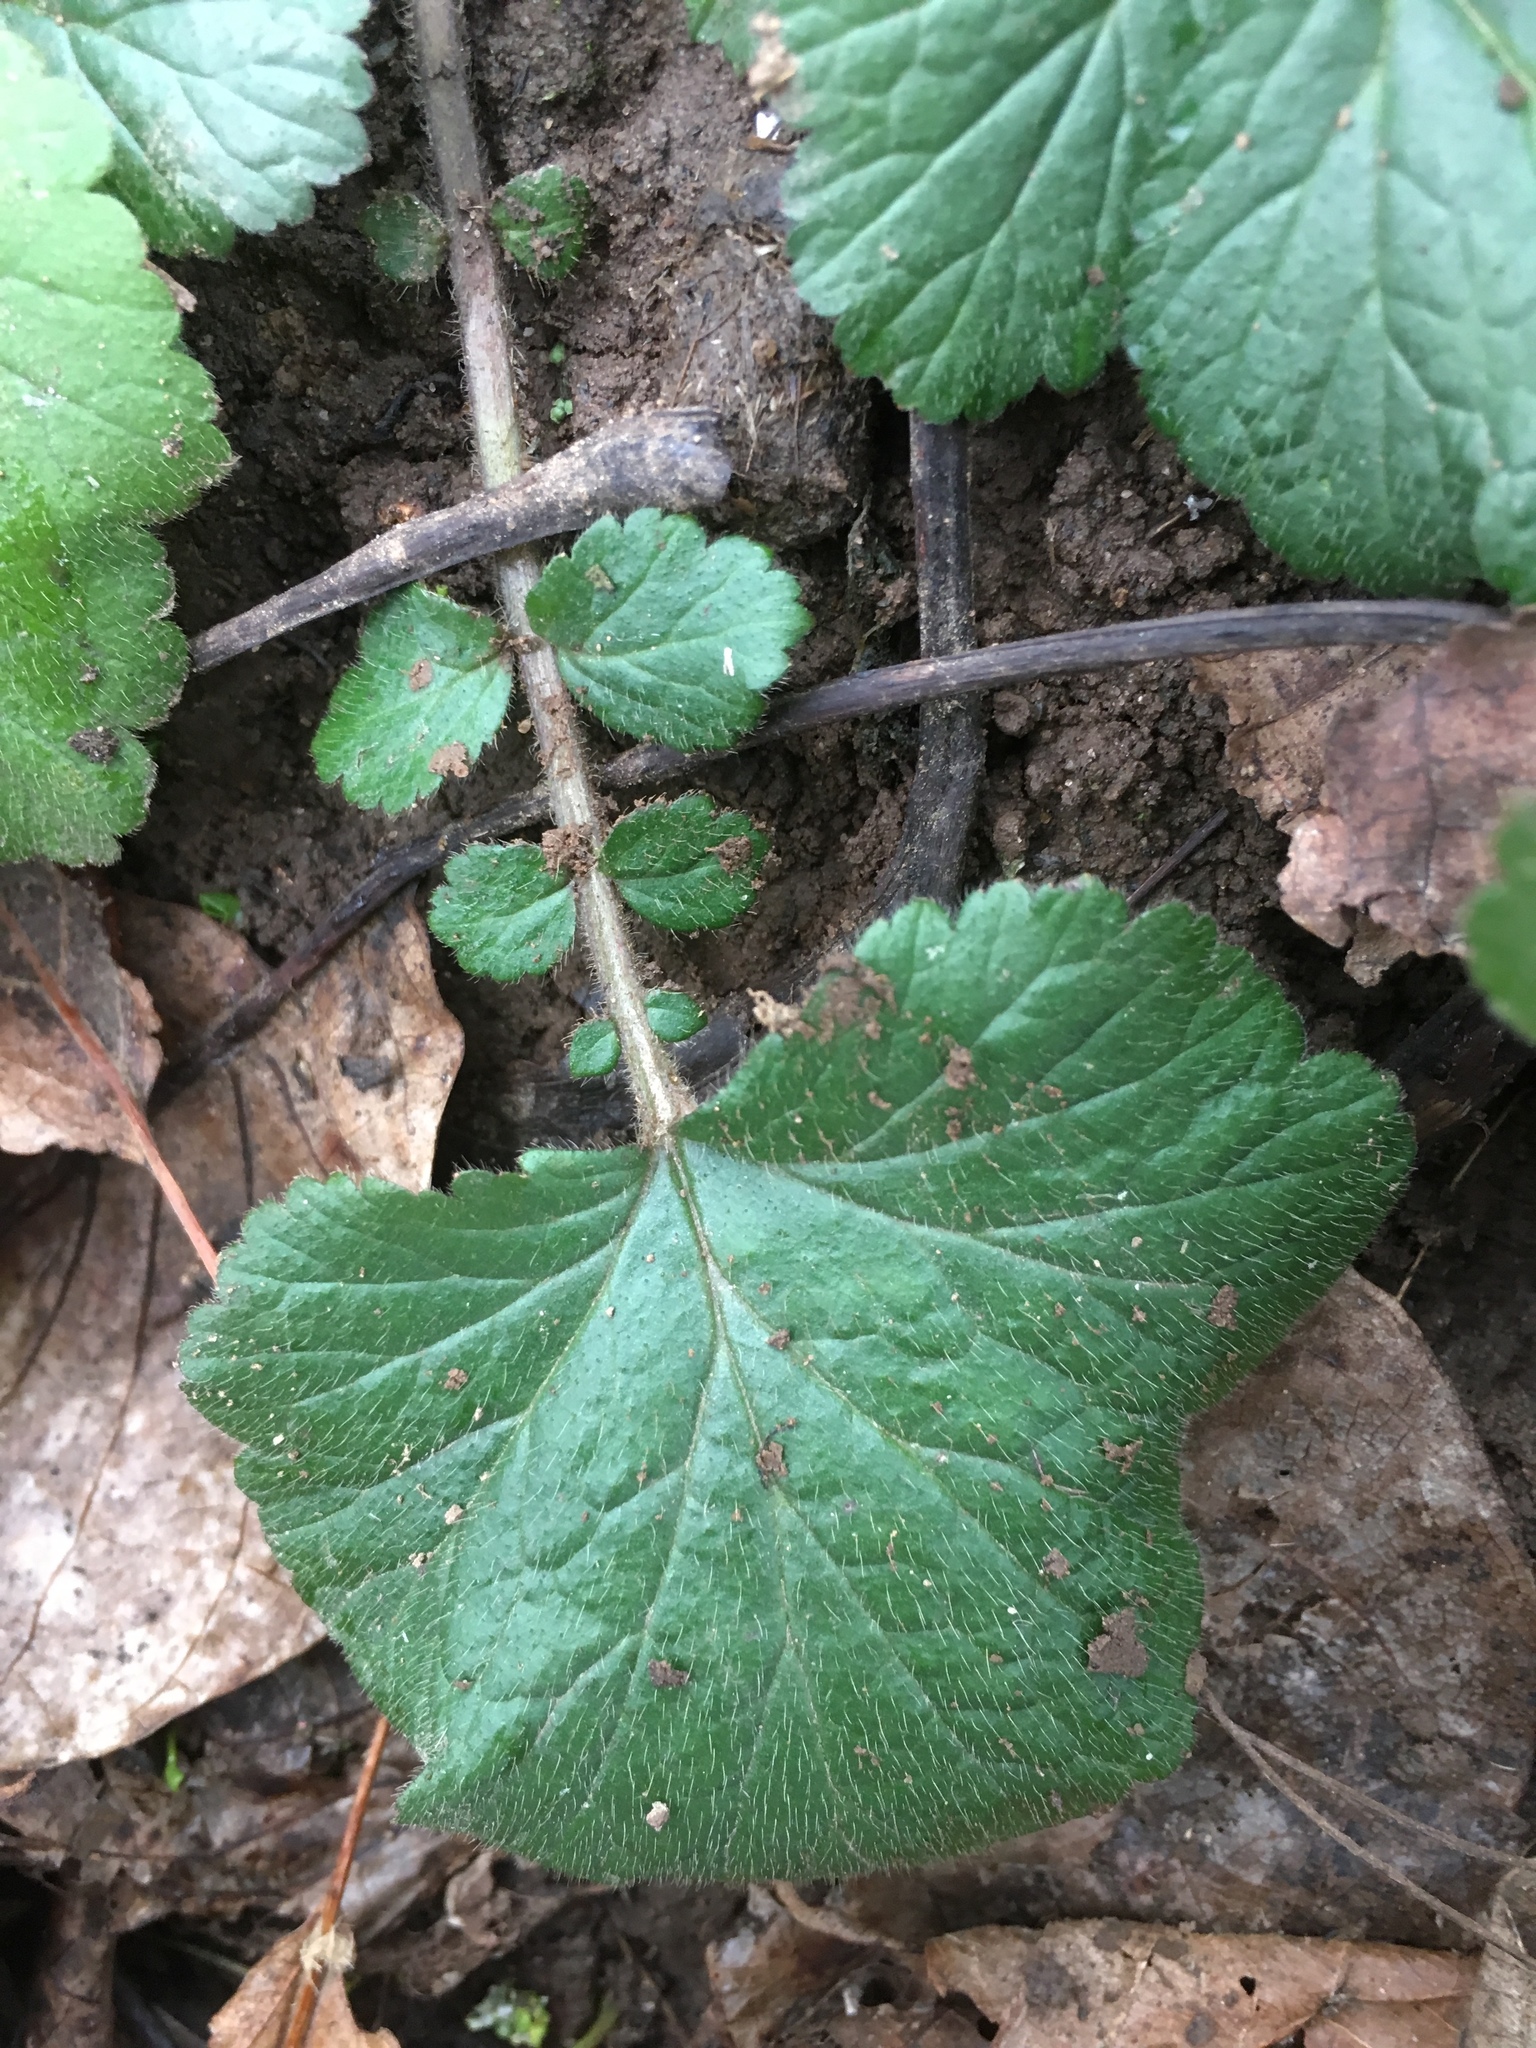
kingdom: Plantae
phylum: Tracheophyta
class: Magnoliopsida
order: Rosales
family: Rosaceae
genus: Geum
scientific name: Geum urbanum
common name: Wood avens
